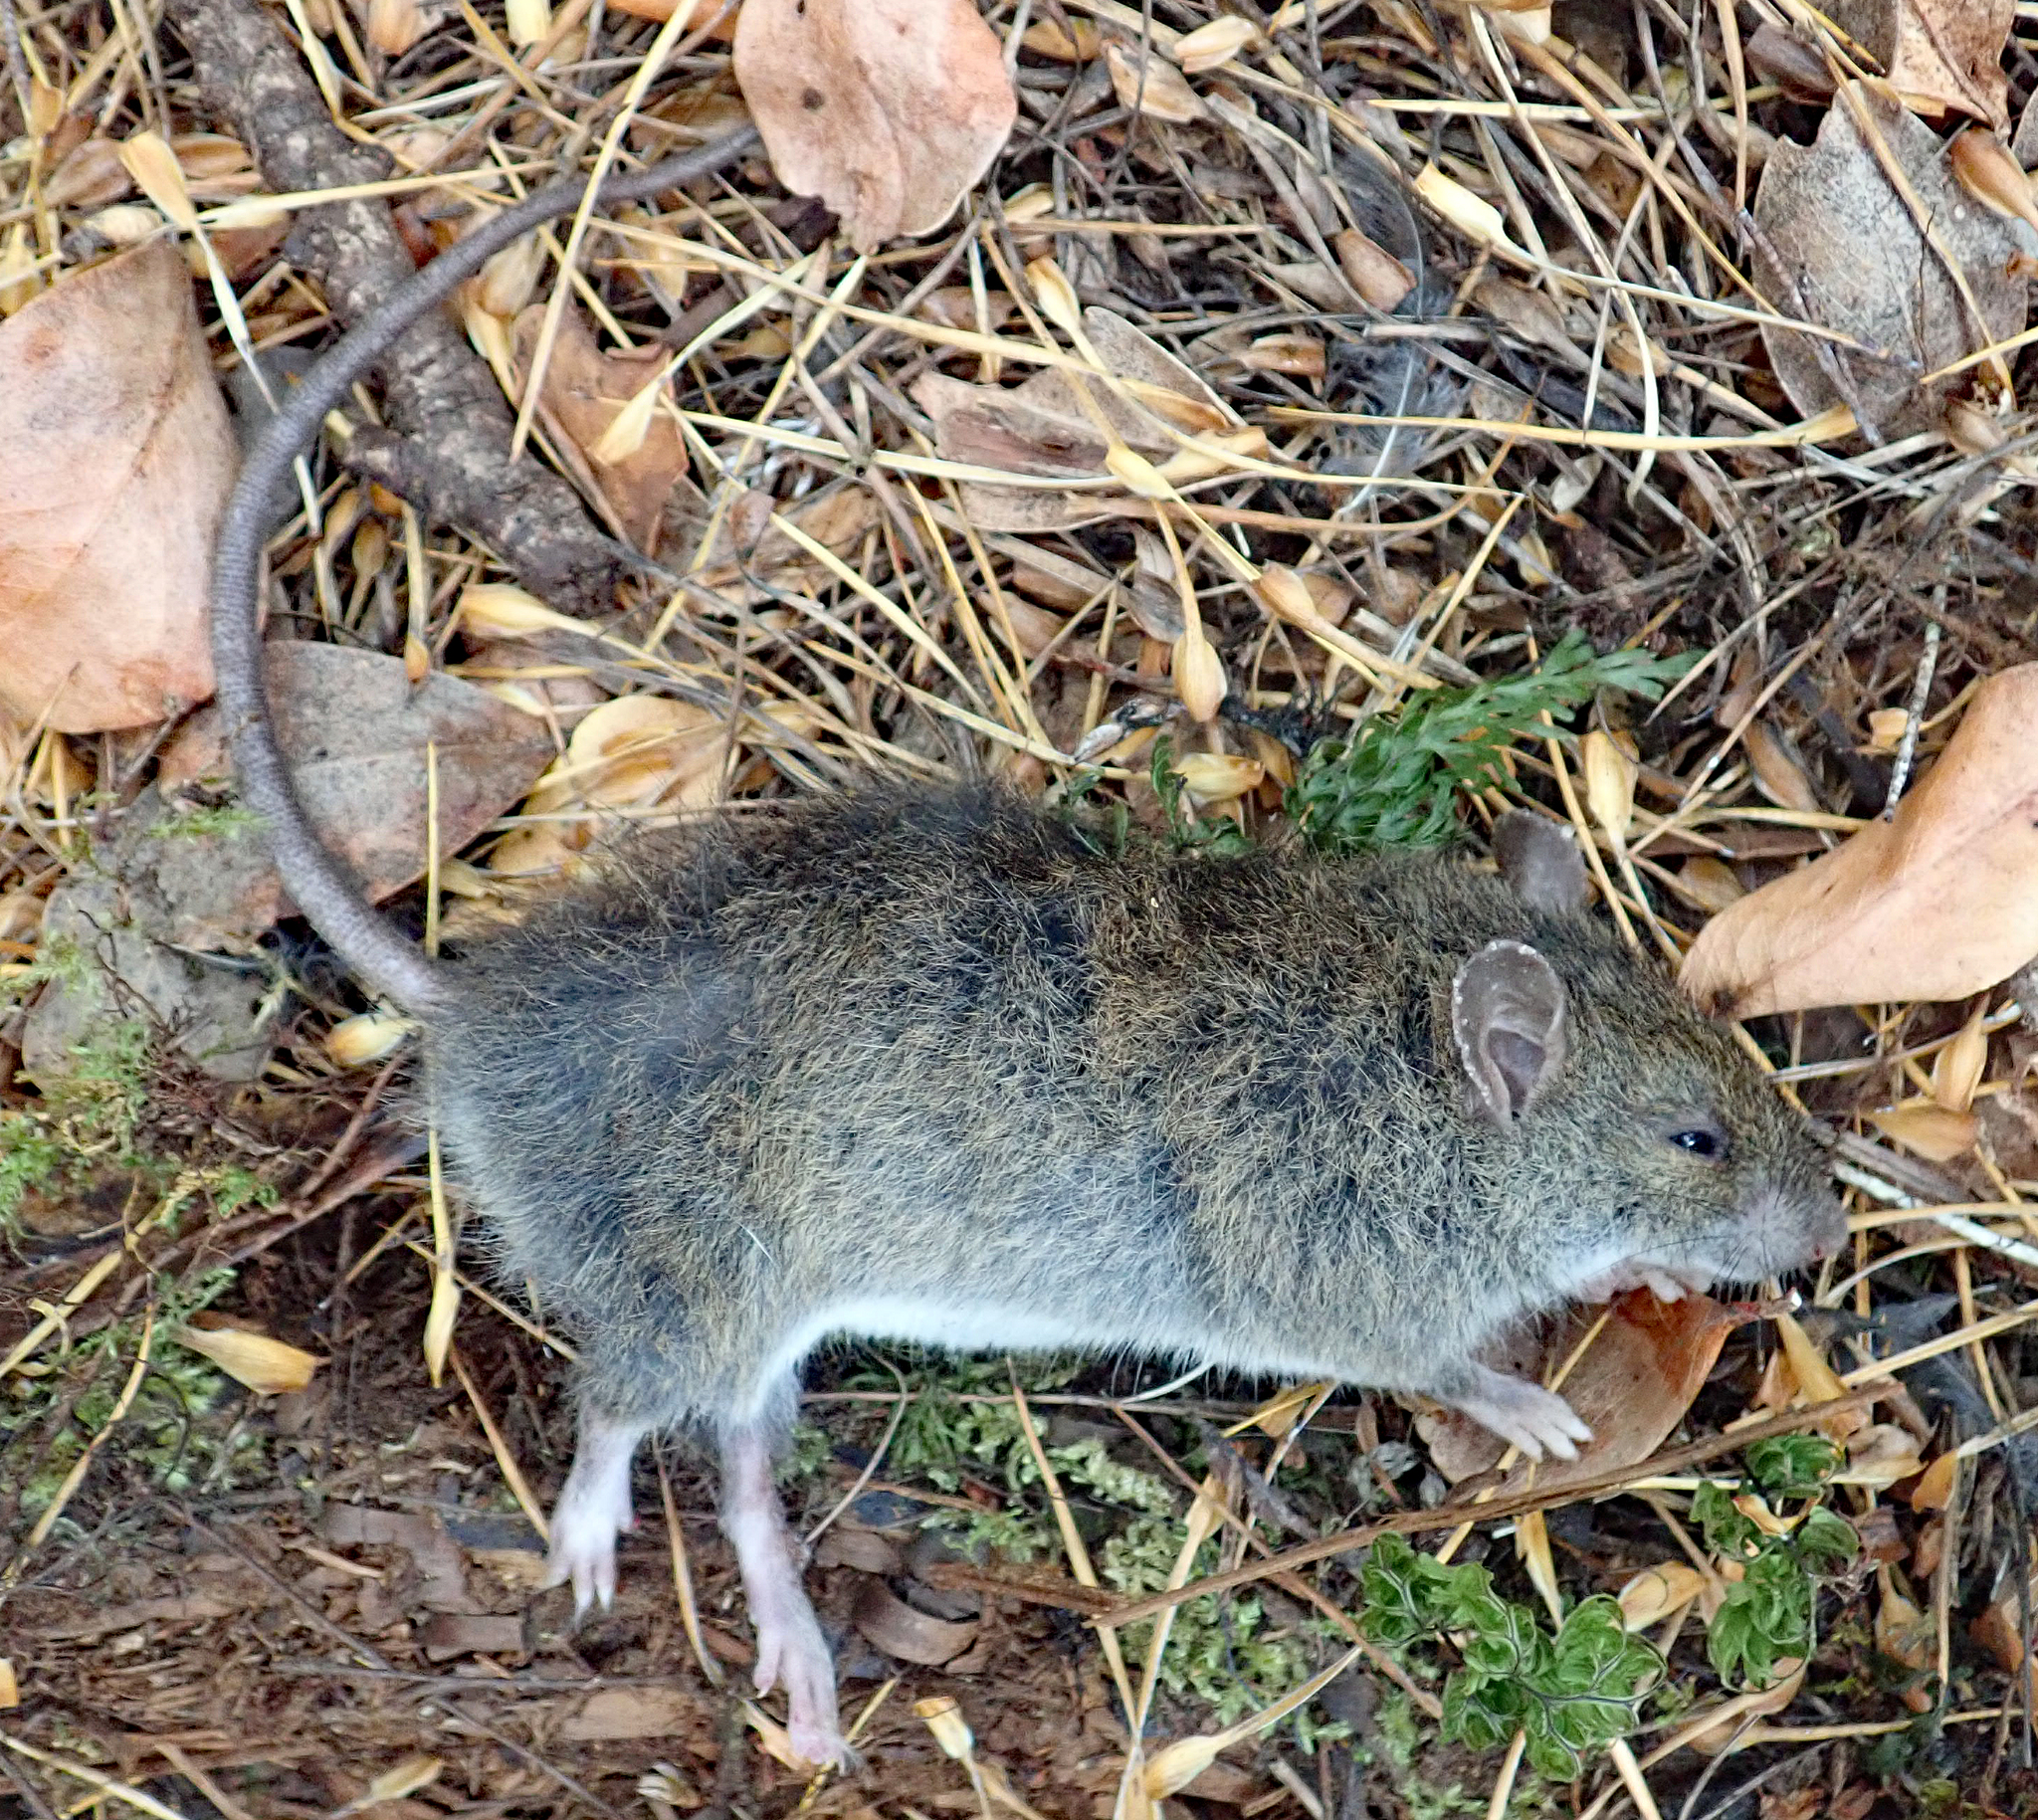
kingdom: Animalia
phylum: Chordata
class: Mammalia
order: Rodentia
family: Muridae
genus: Rattus
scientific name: Rattus exulans
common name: Polynesian rat
